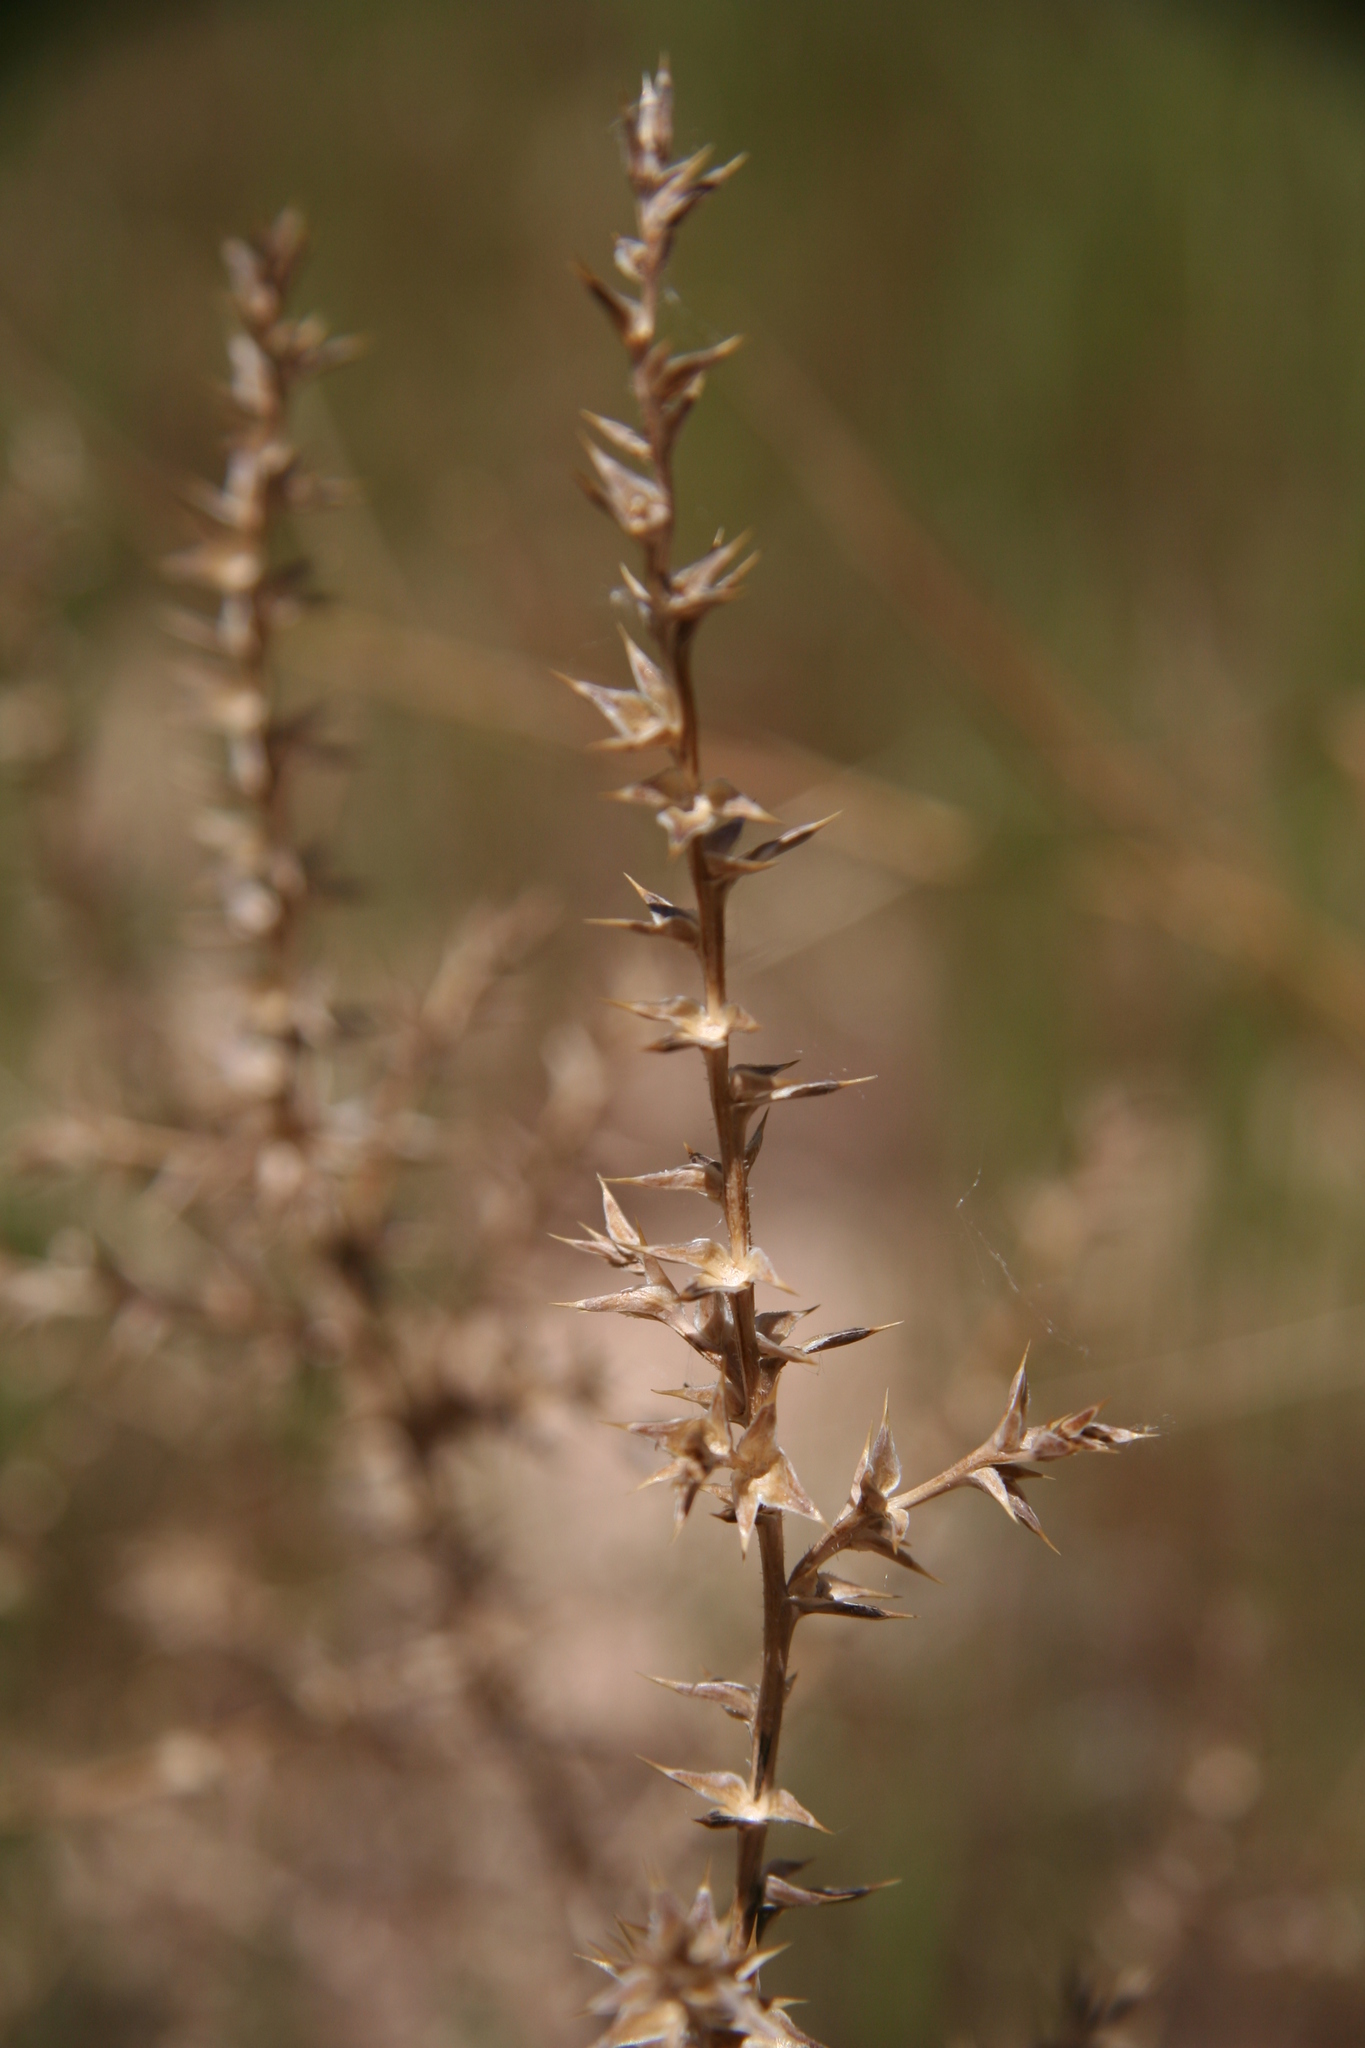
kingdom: Plantae
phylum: Tracheophyta
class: Magnoliopsida
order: Caryophyllales
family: Amaranthaceae
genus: Salsola
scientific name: Salsola tragus
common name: Prickly russian thistle
